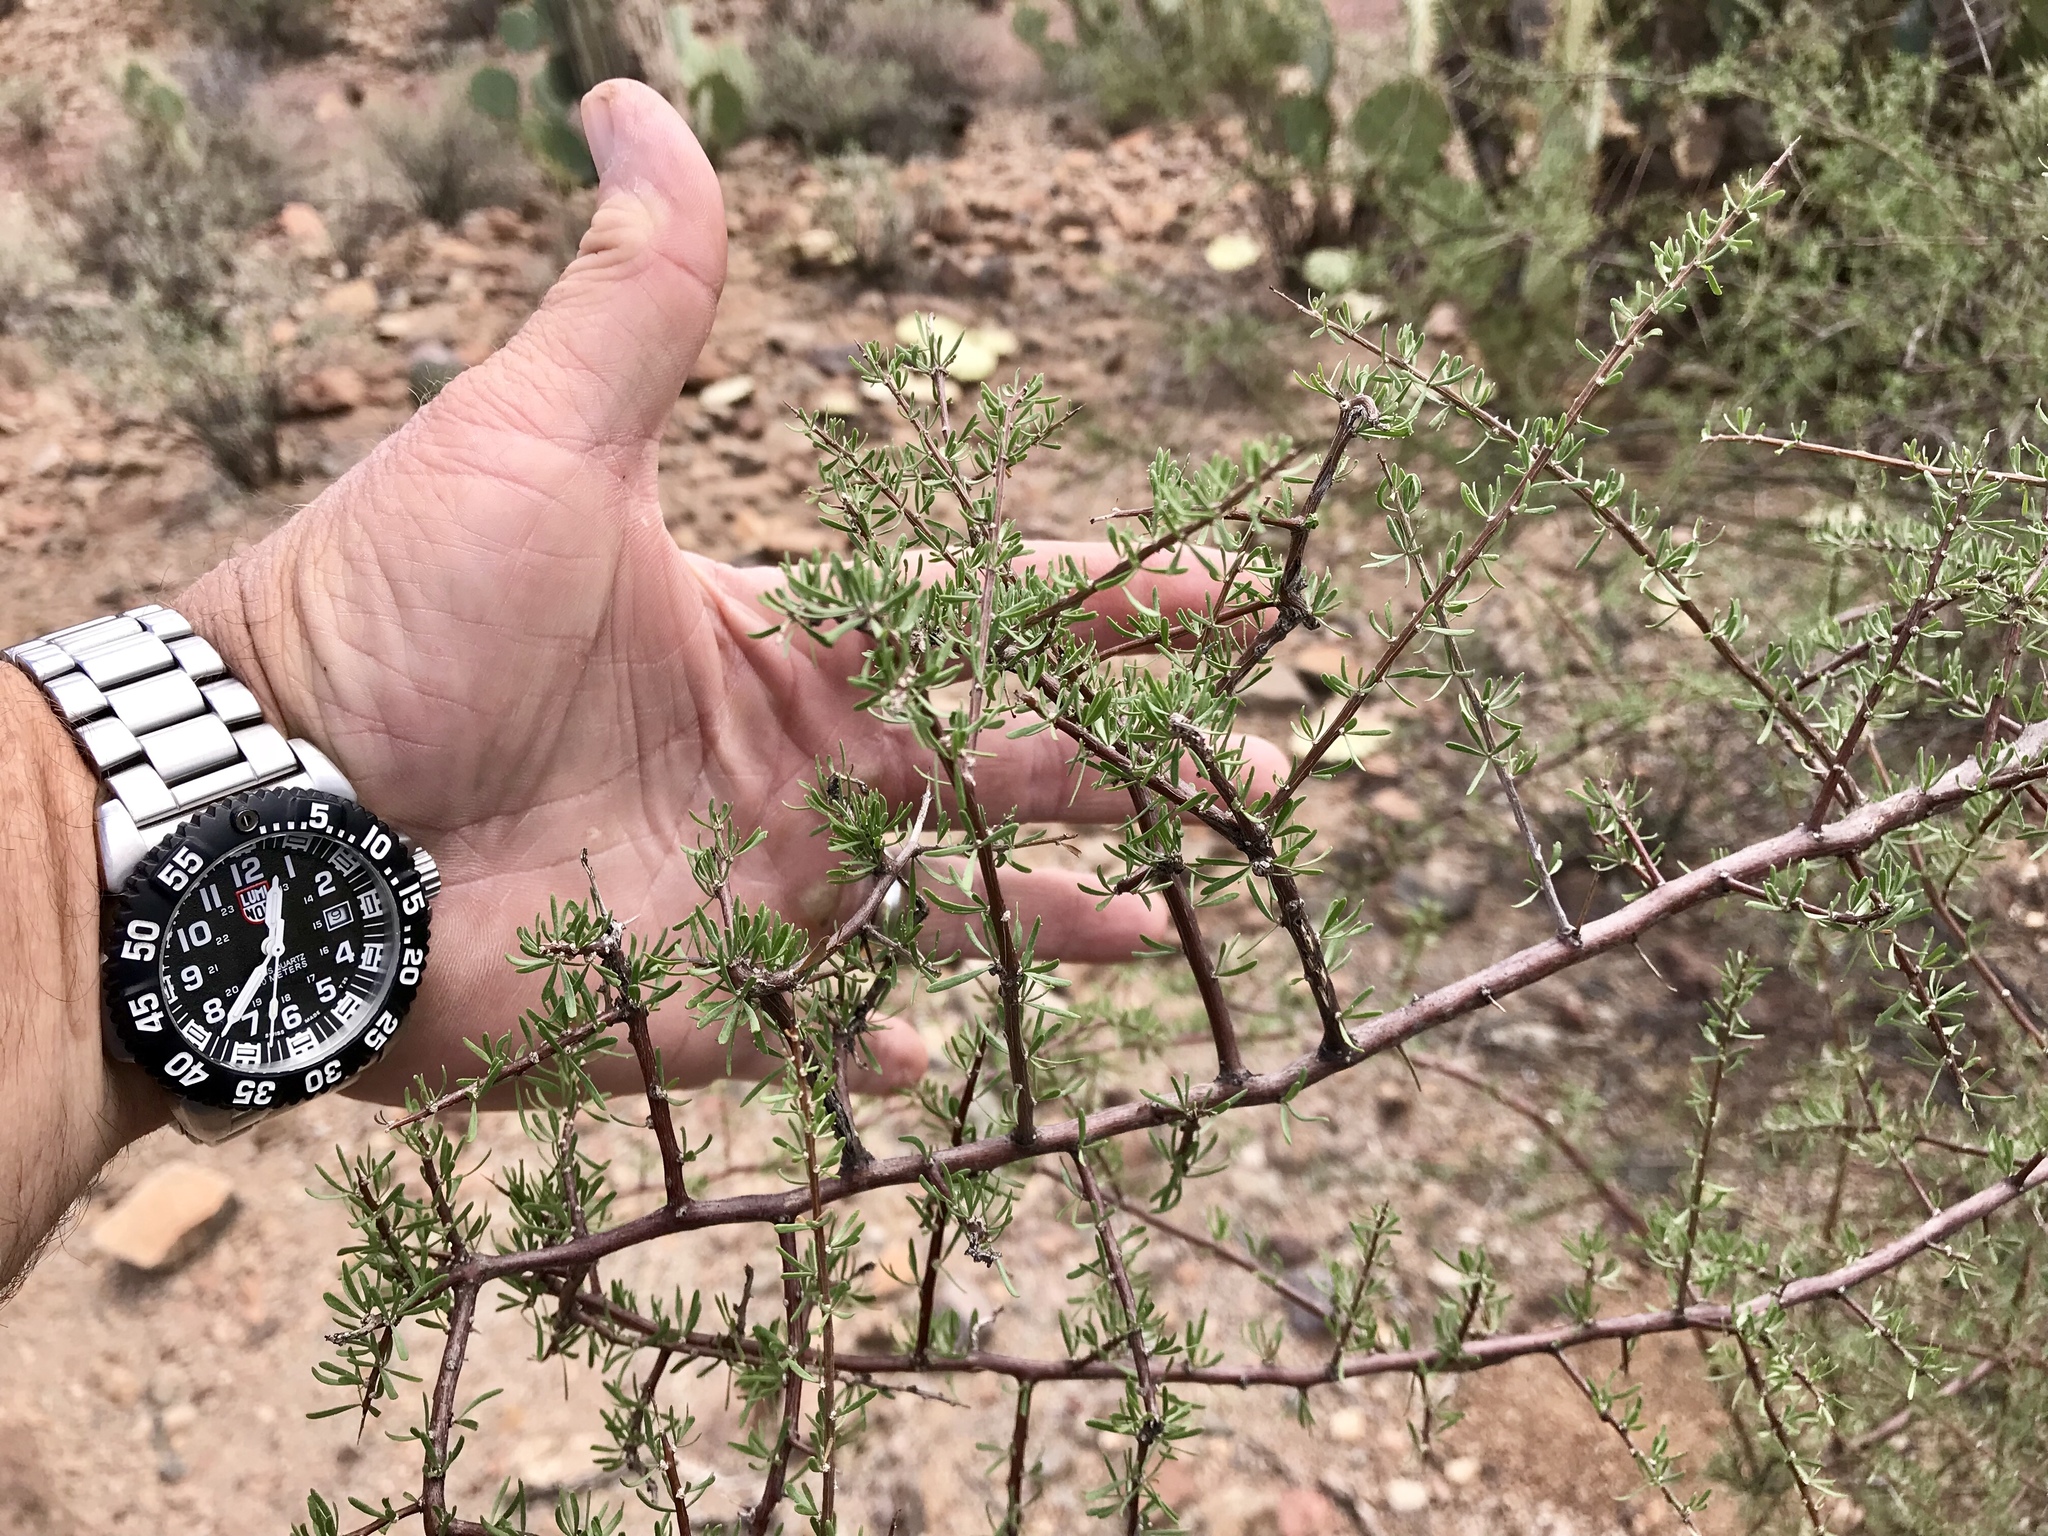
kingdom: Plantae
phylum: Tracheophyta
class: Magnoliopsida
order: Solanales
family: Solanaceae
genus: Lycium
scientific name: Lycium berlandieri
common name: Berlandier wolfberry
